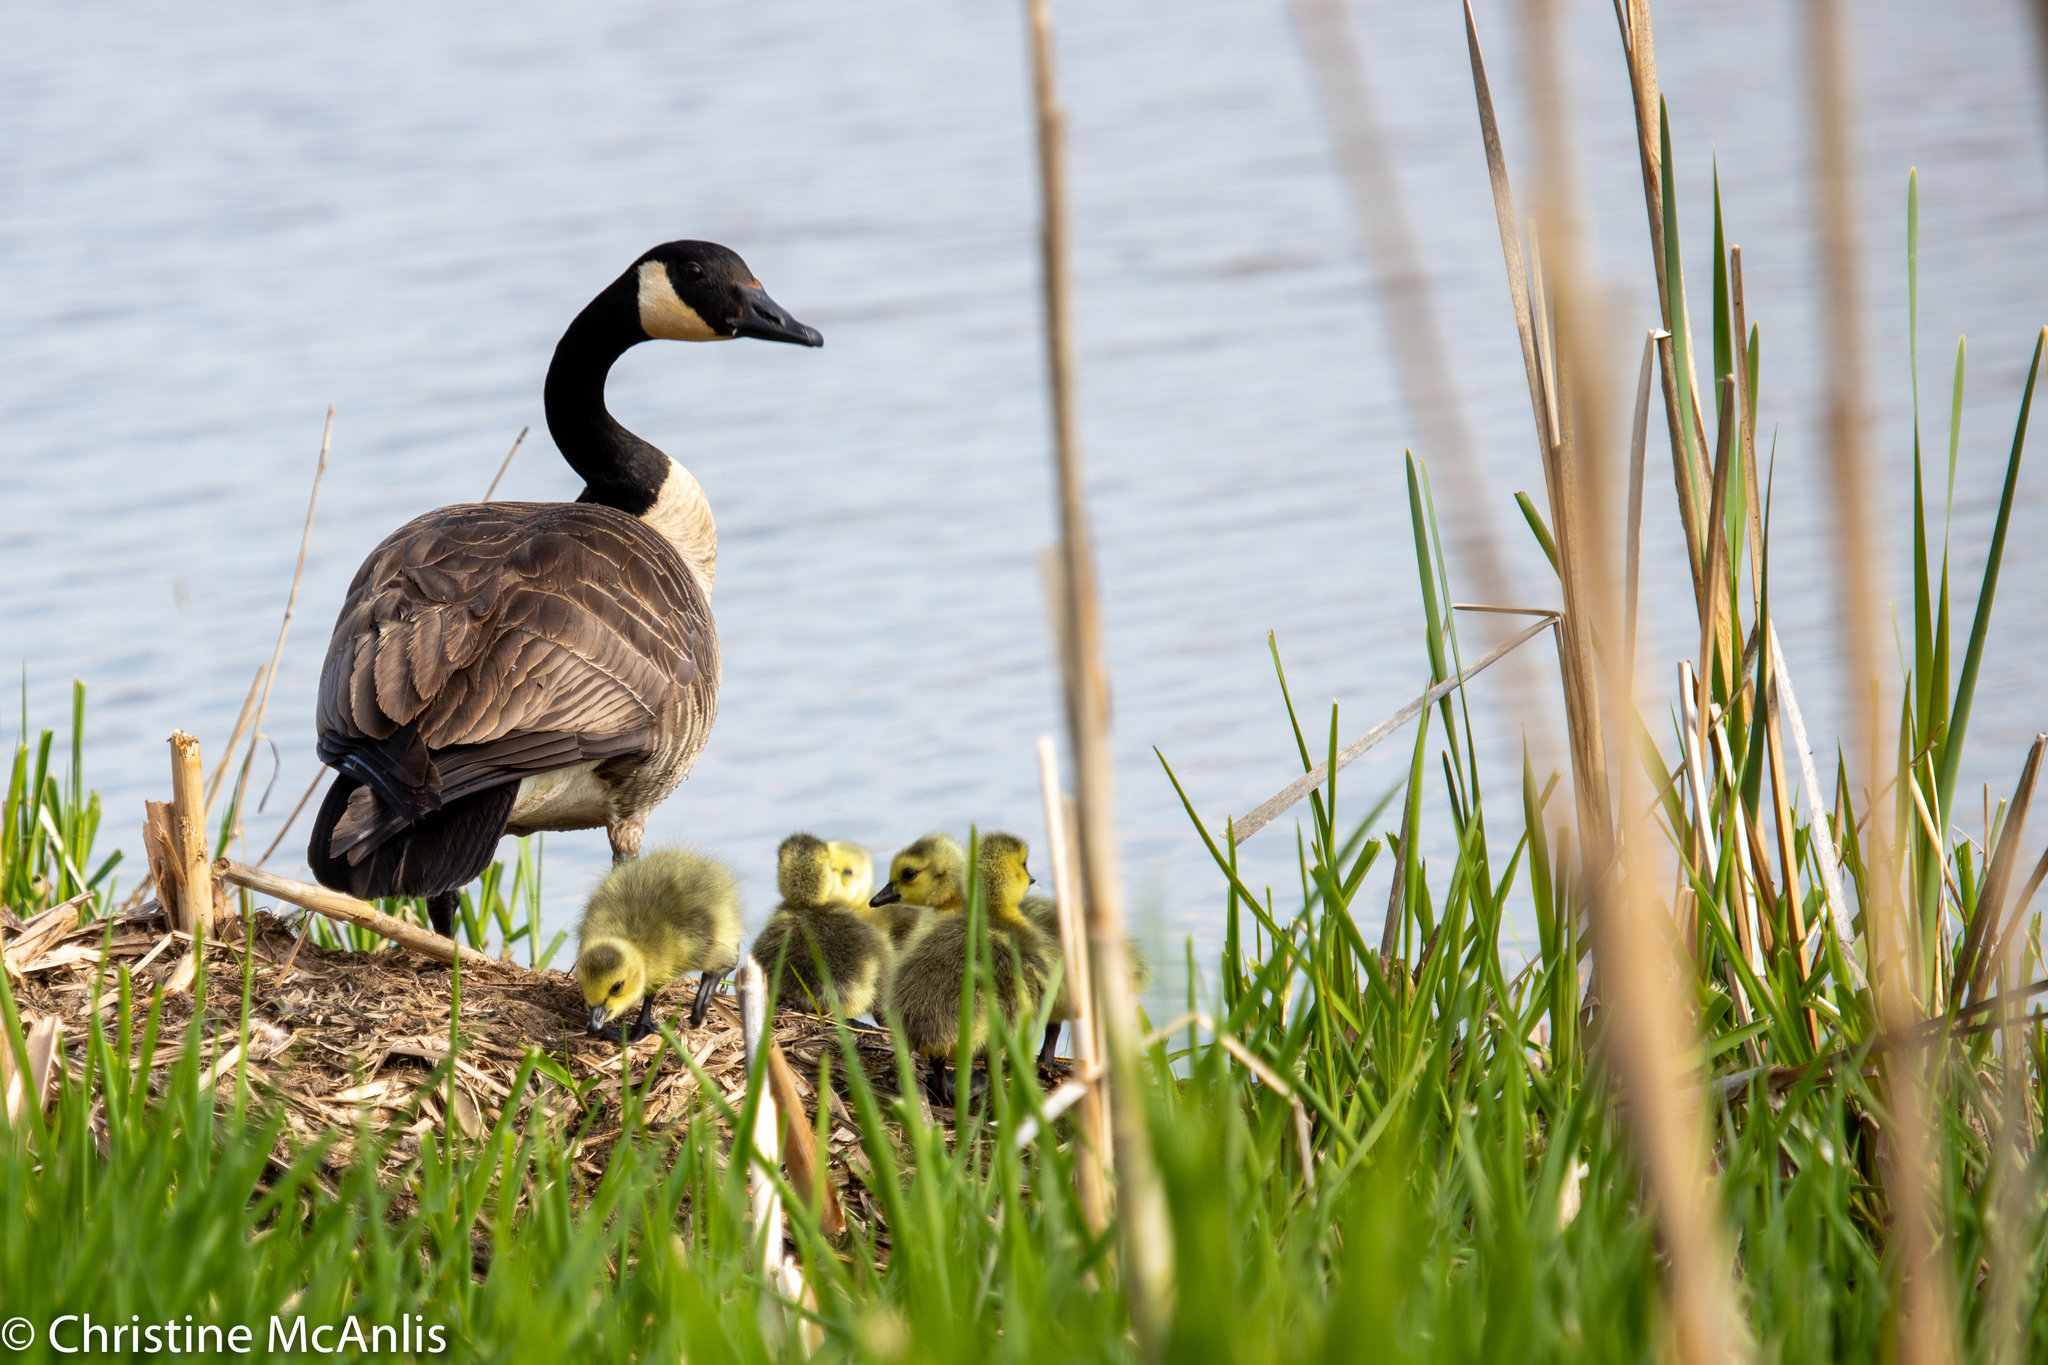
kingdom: Animalia
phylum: Chordata
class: Aves
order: Anseriformes
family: Anatidae
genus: Branta
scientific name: Branta canadensis
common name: Canada goose
